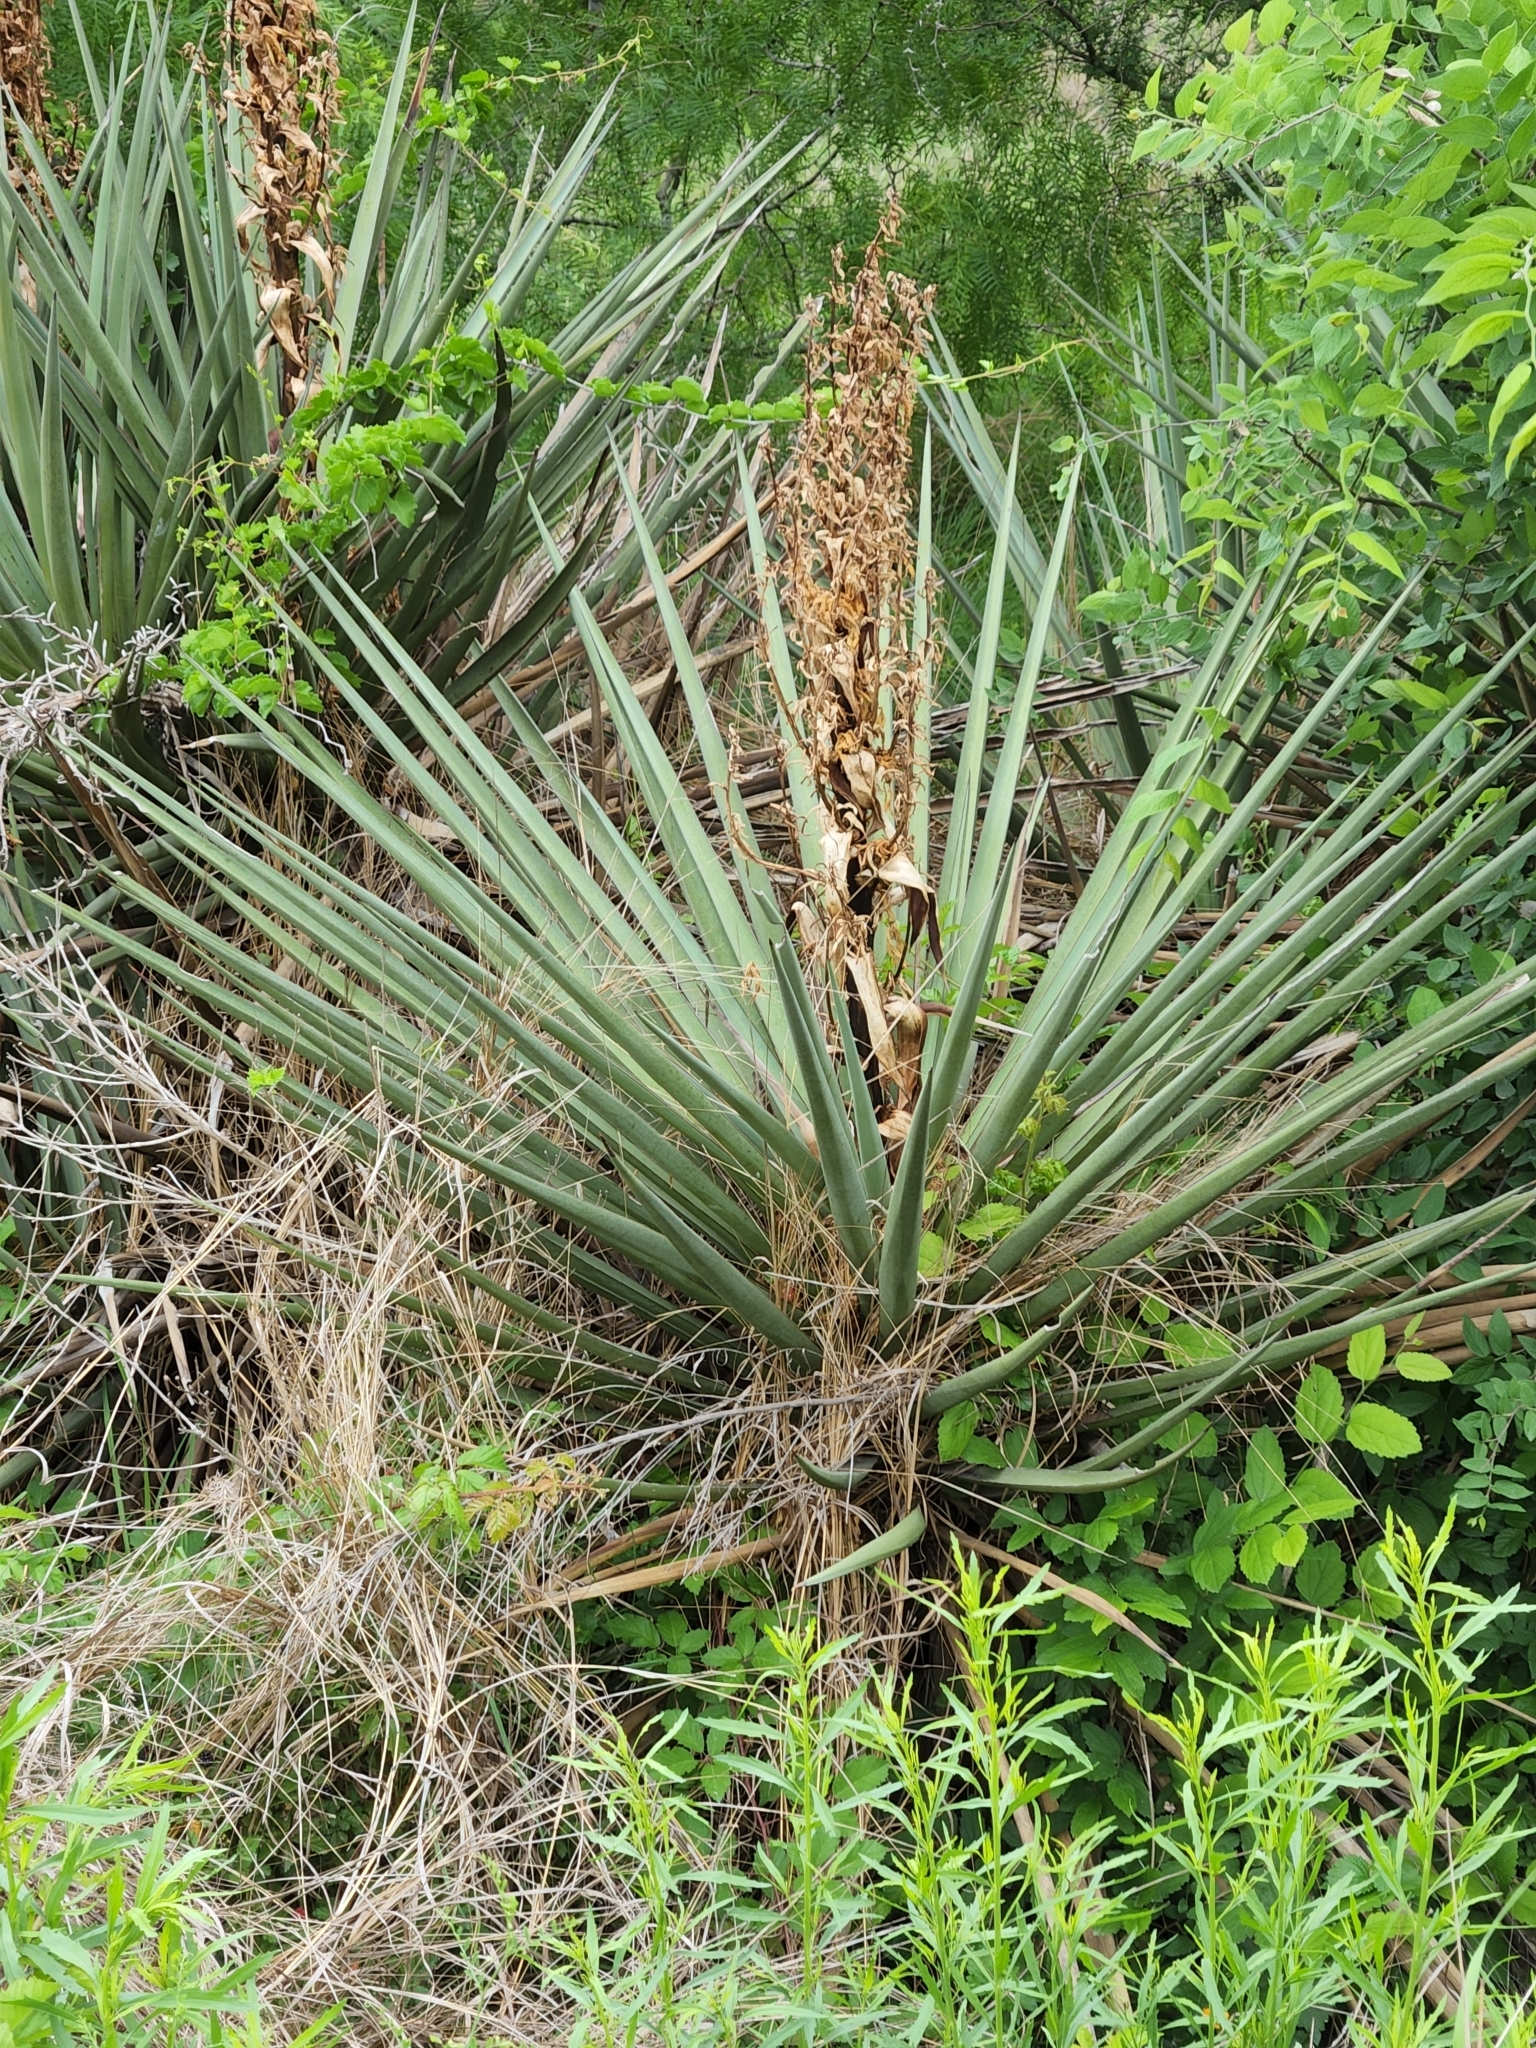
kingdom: Plantae
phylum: Tracheophyta
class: Liliopsida
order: Asparagales
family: Asparagaceae
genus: Yucca
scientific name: Yucca treculiana
